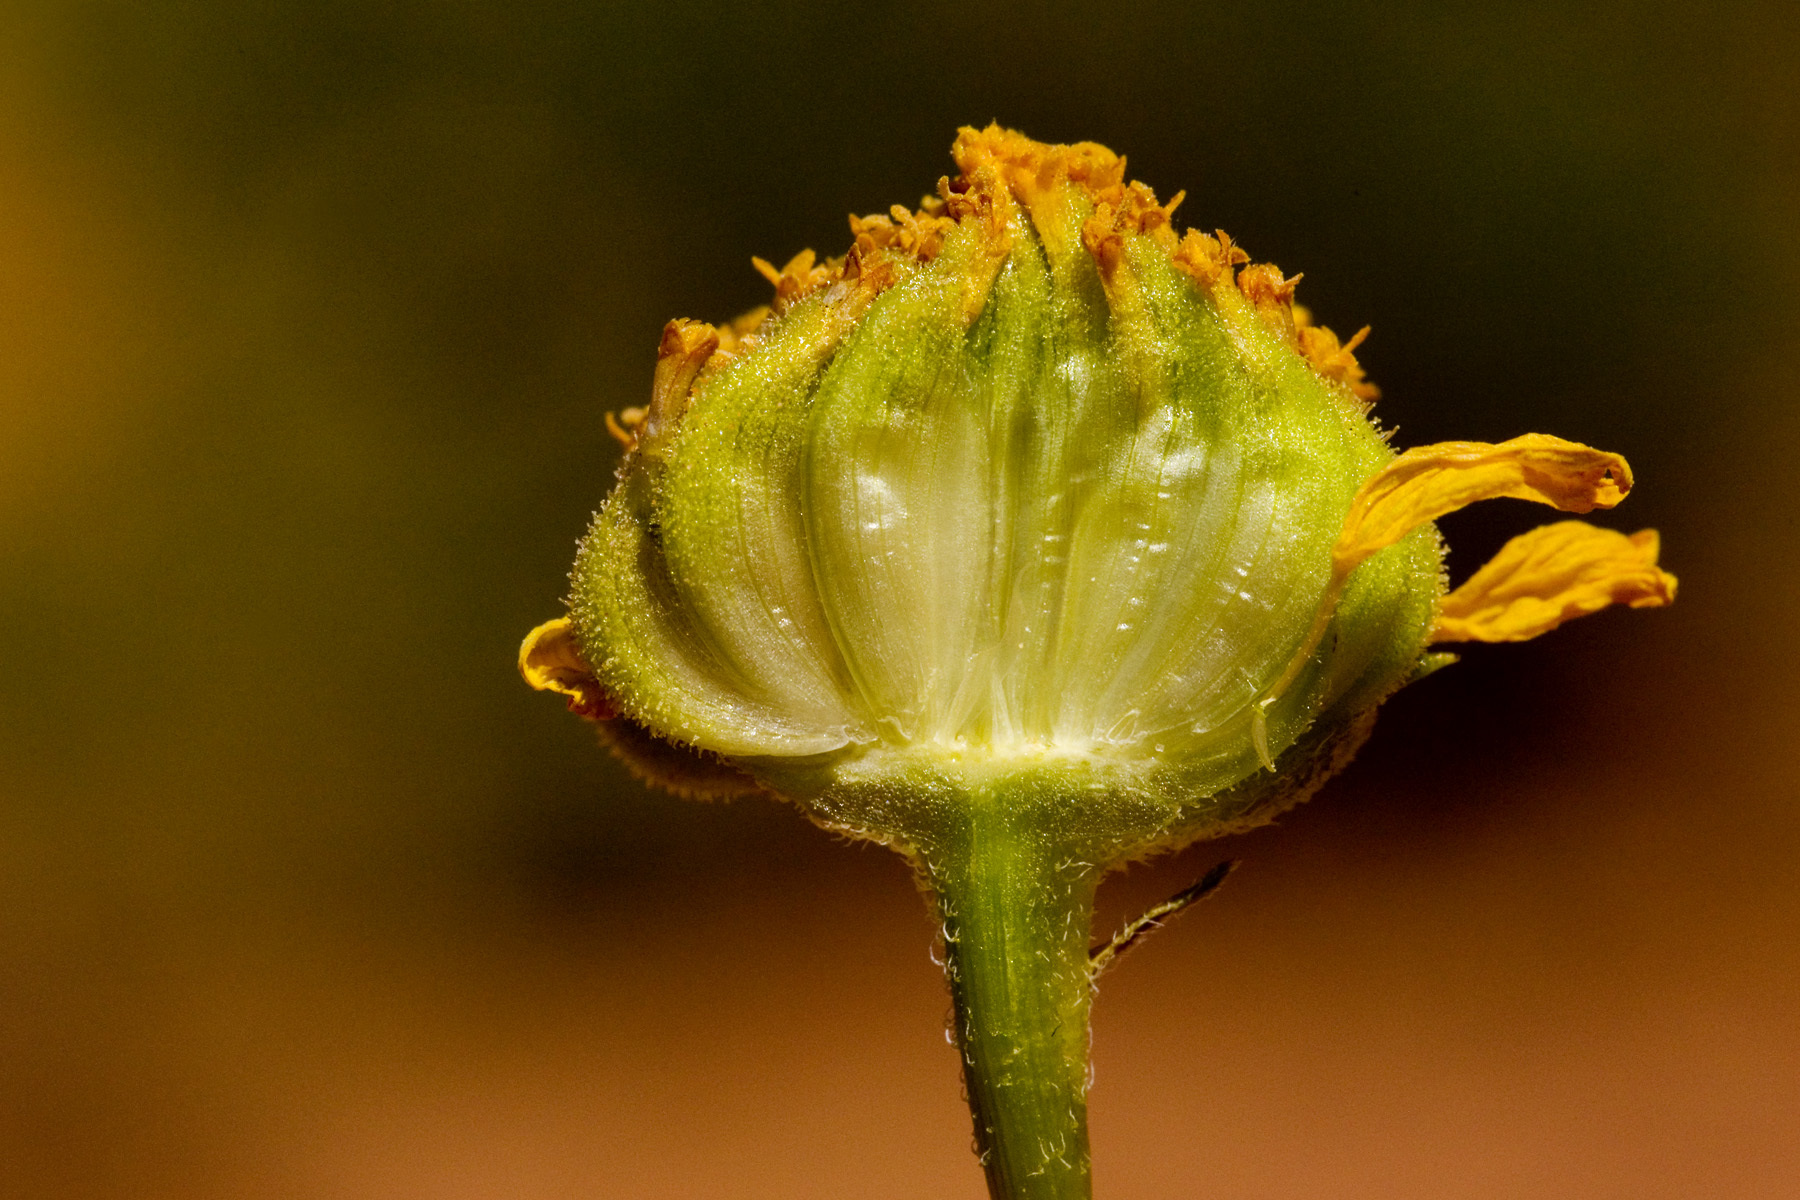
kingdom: Plantae
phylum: Tracheophyta
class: Magnoliopsida
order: Asterales
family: Asteraceae
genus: Encelia
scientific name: Encelia resinifera
